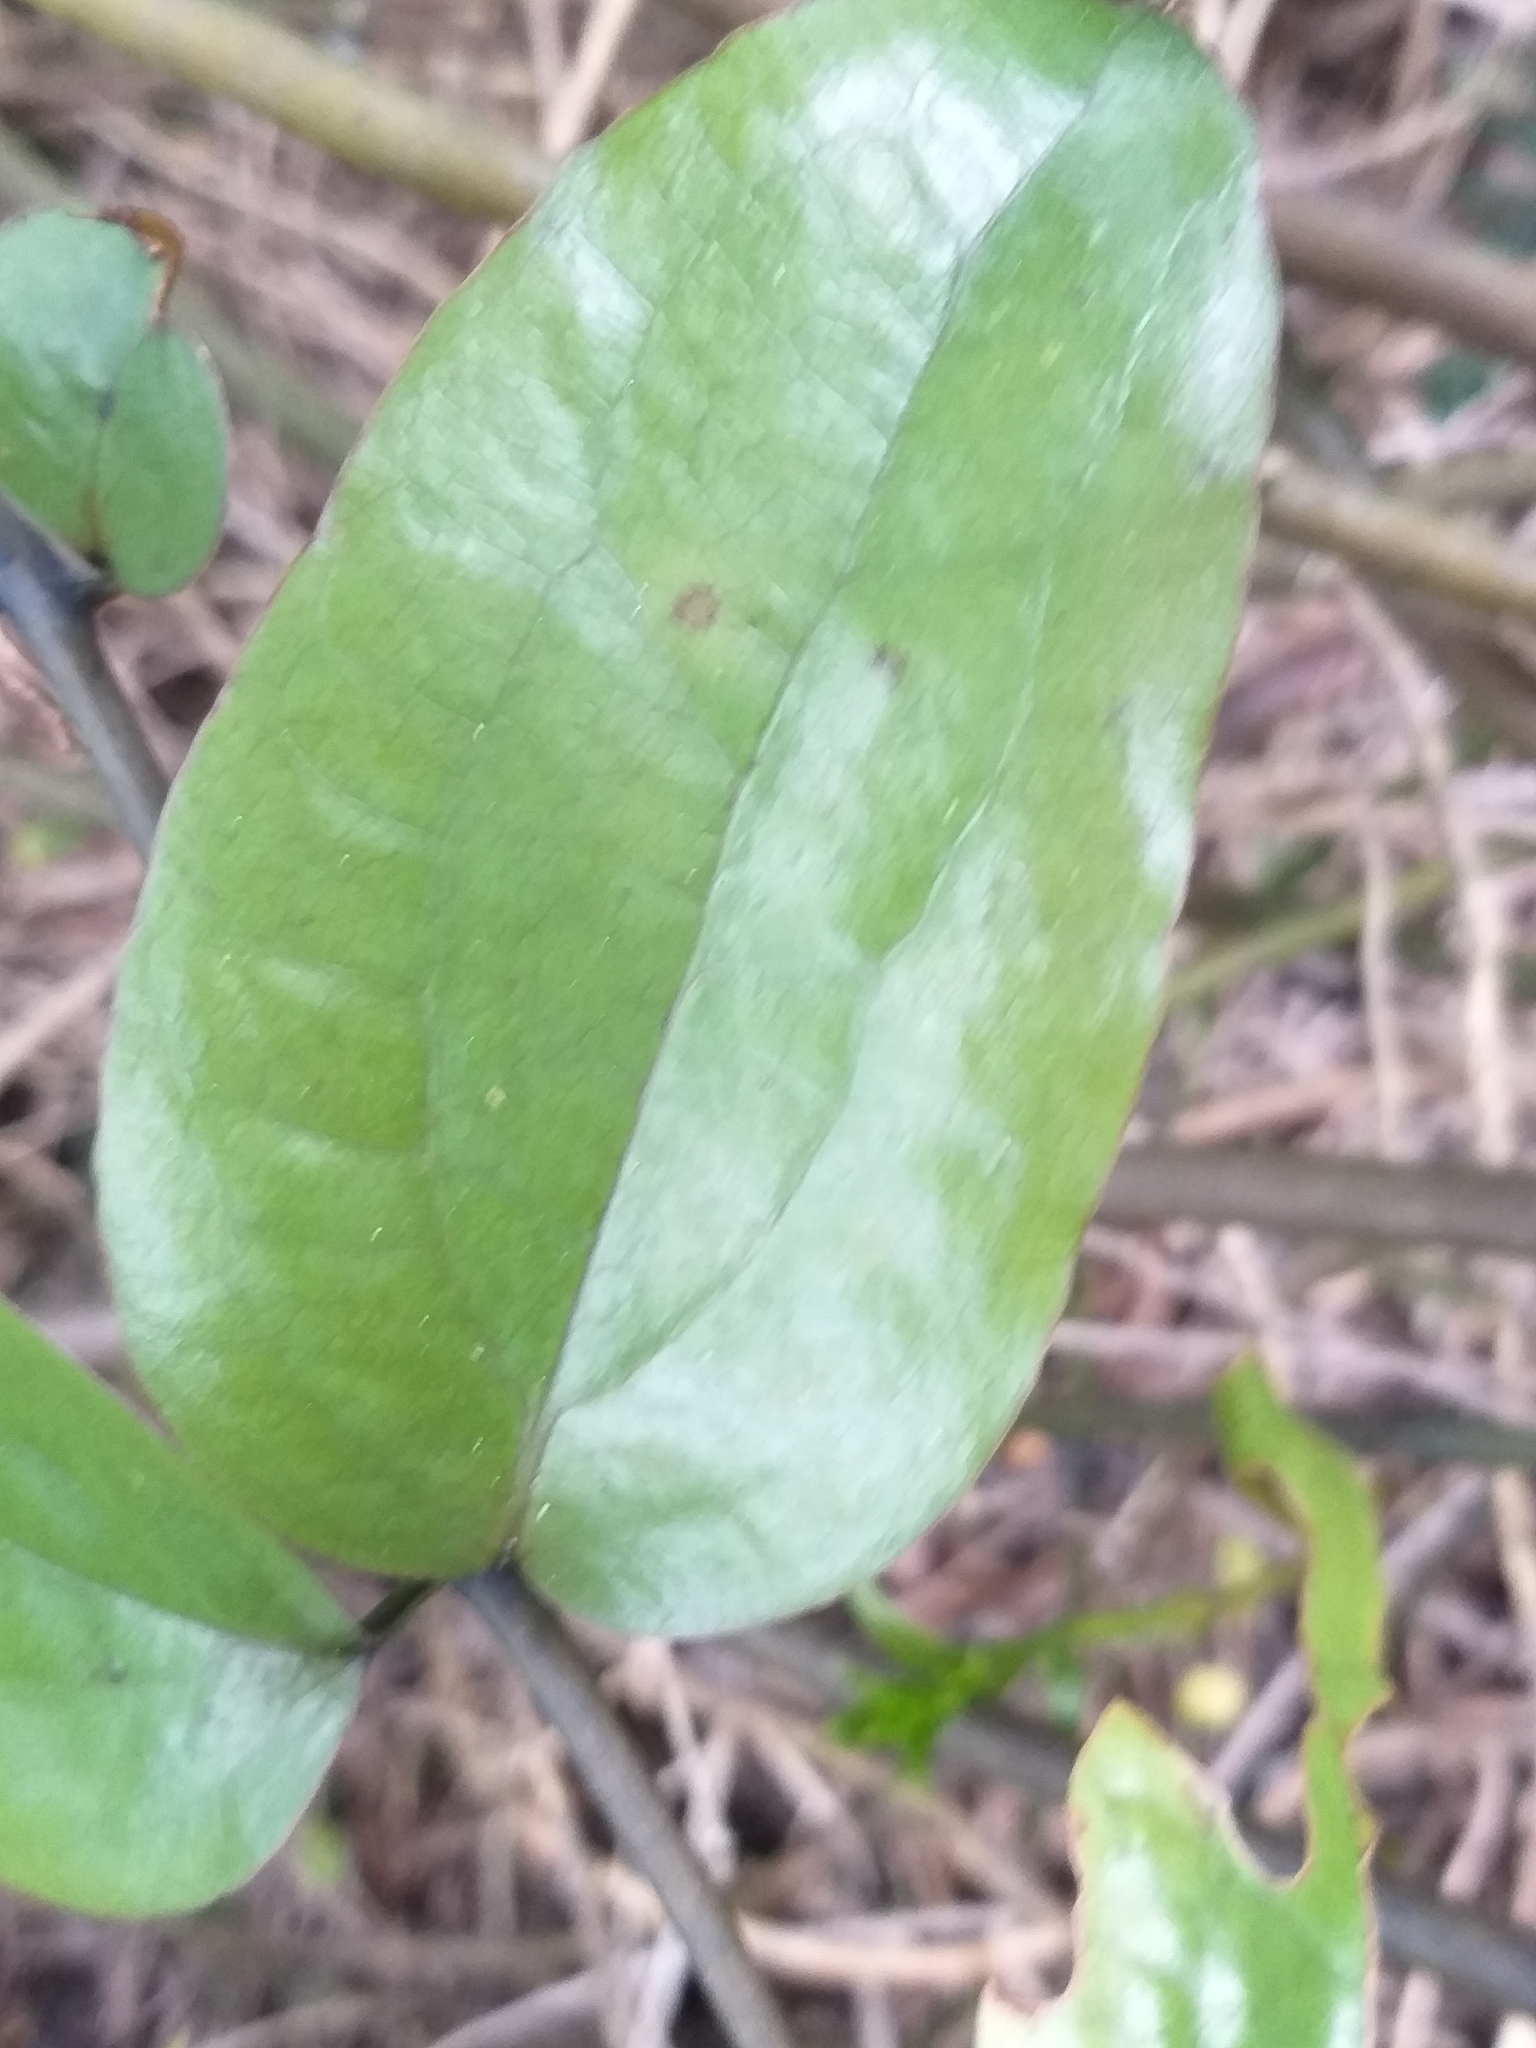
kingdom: Plantae
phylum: Tracheophyta
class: Liliopsida
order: Liliales
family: Ripogonaceae
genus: Ripogonum
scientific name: Ripogonum scandens
